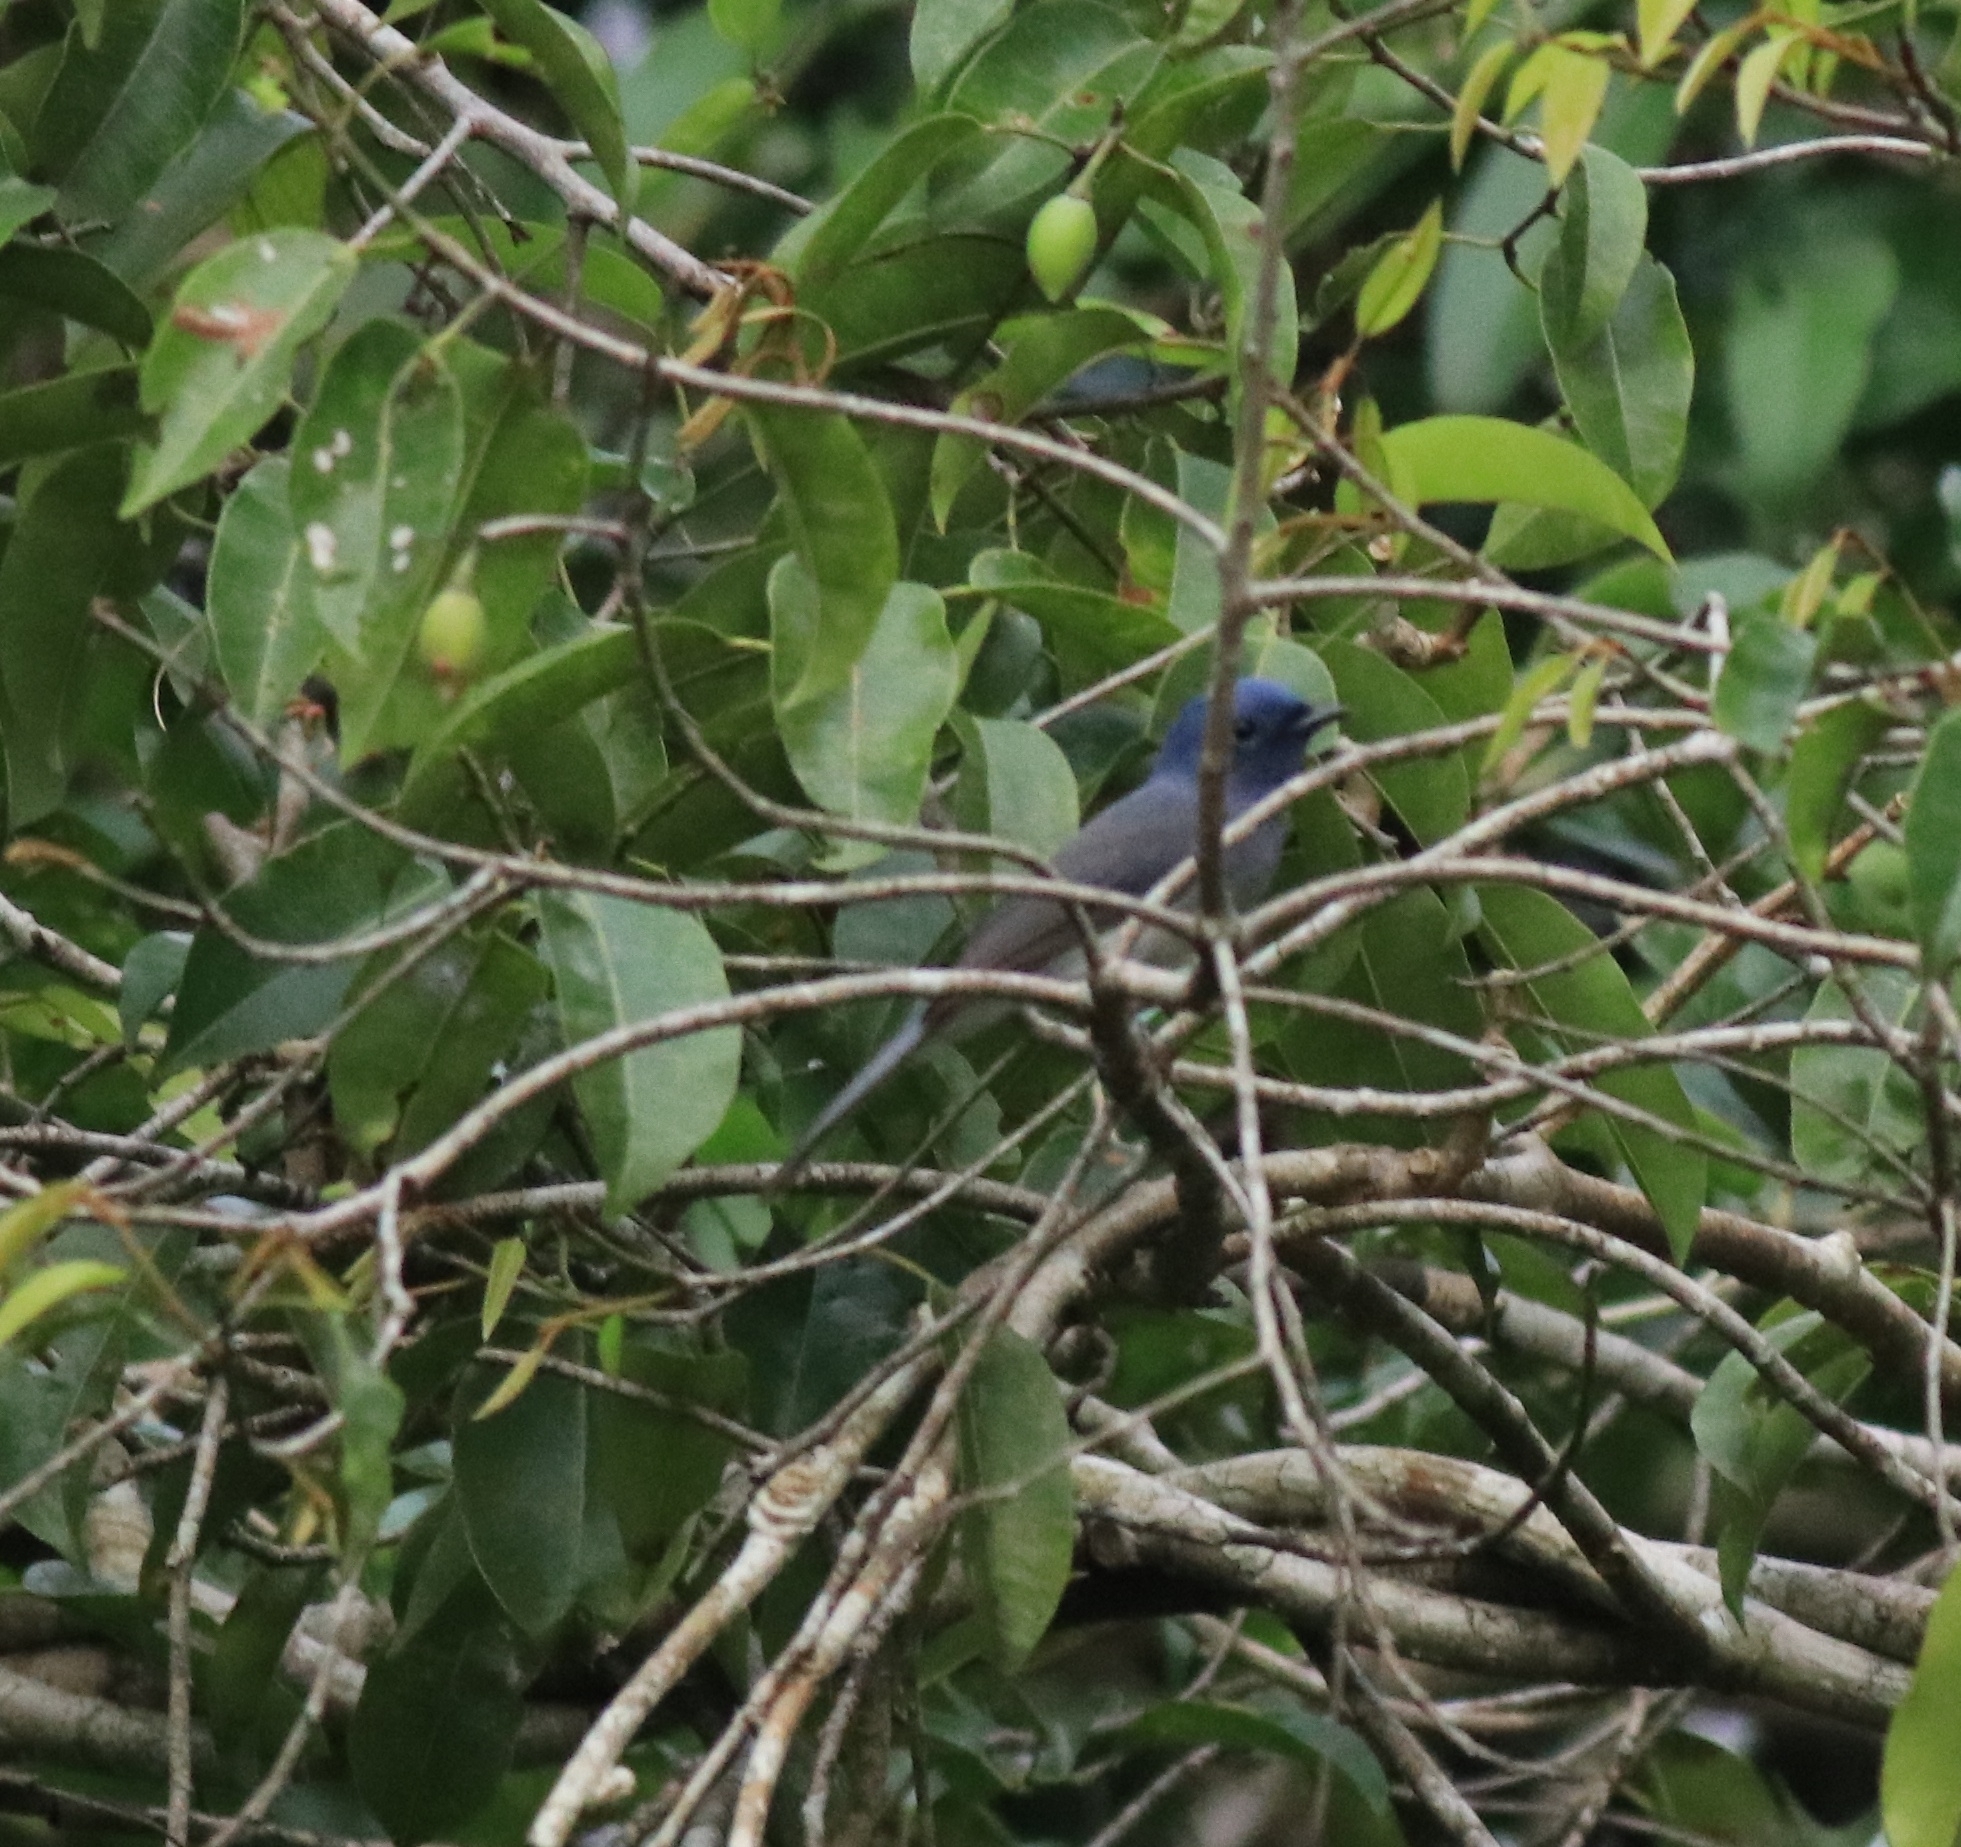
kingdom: Animalia
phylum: Chordata
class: Aves
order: Passeriformes
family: Monarchidae
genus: Hypothymis
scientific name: Hypothymis azurea
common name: Black-naped monarch
